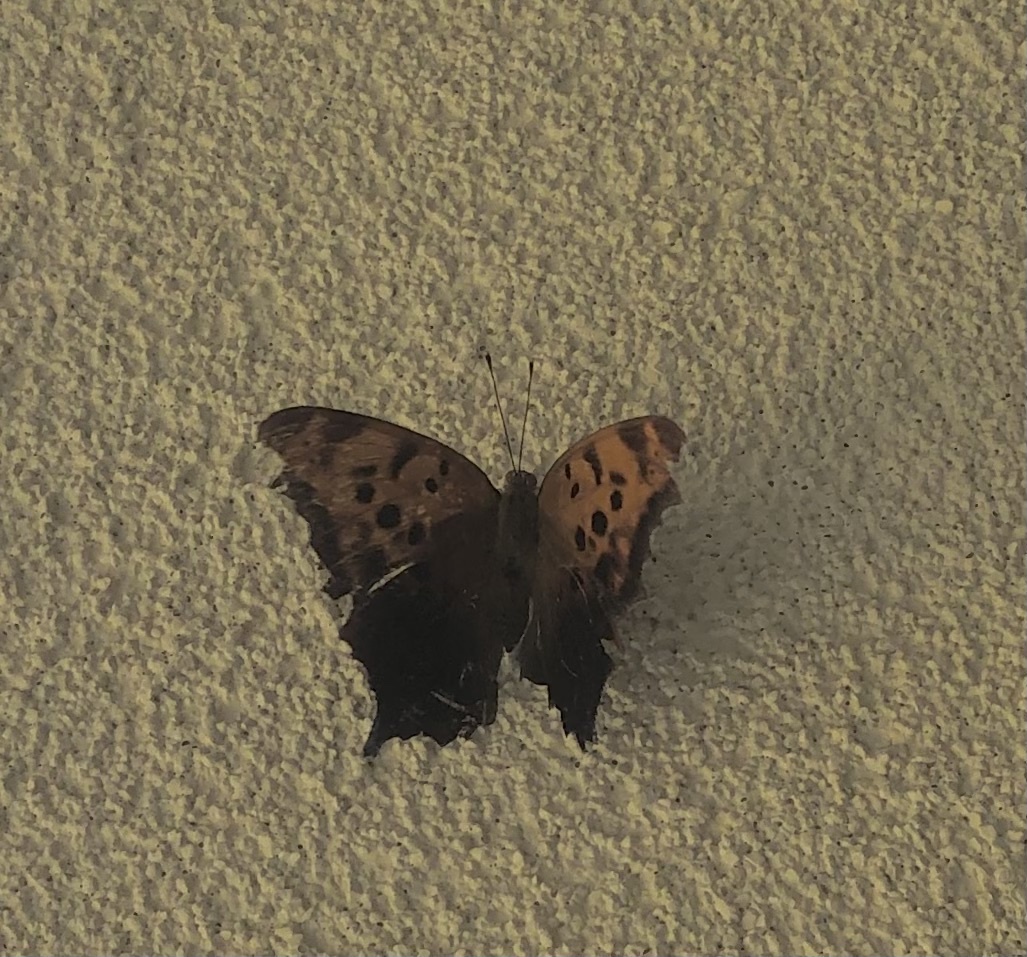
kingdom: Animalia
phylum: Arthropoda
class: Insecta
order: Lepidoptera
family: Nymphalidae
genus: Polygonia
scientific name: Polygonia interrogationis
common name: Question mark
